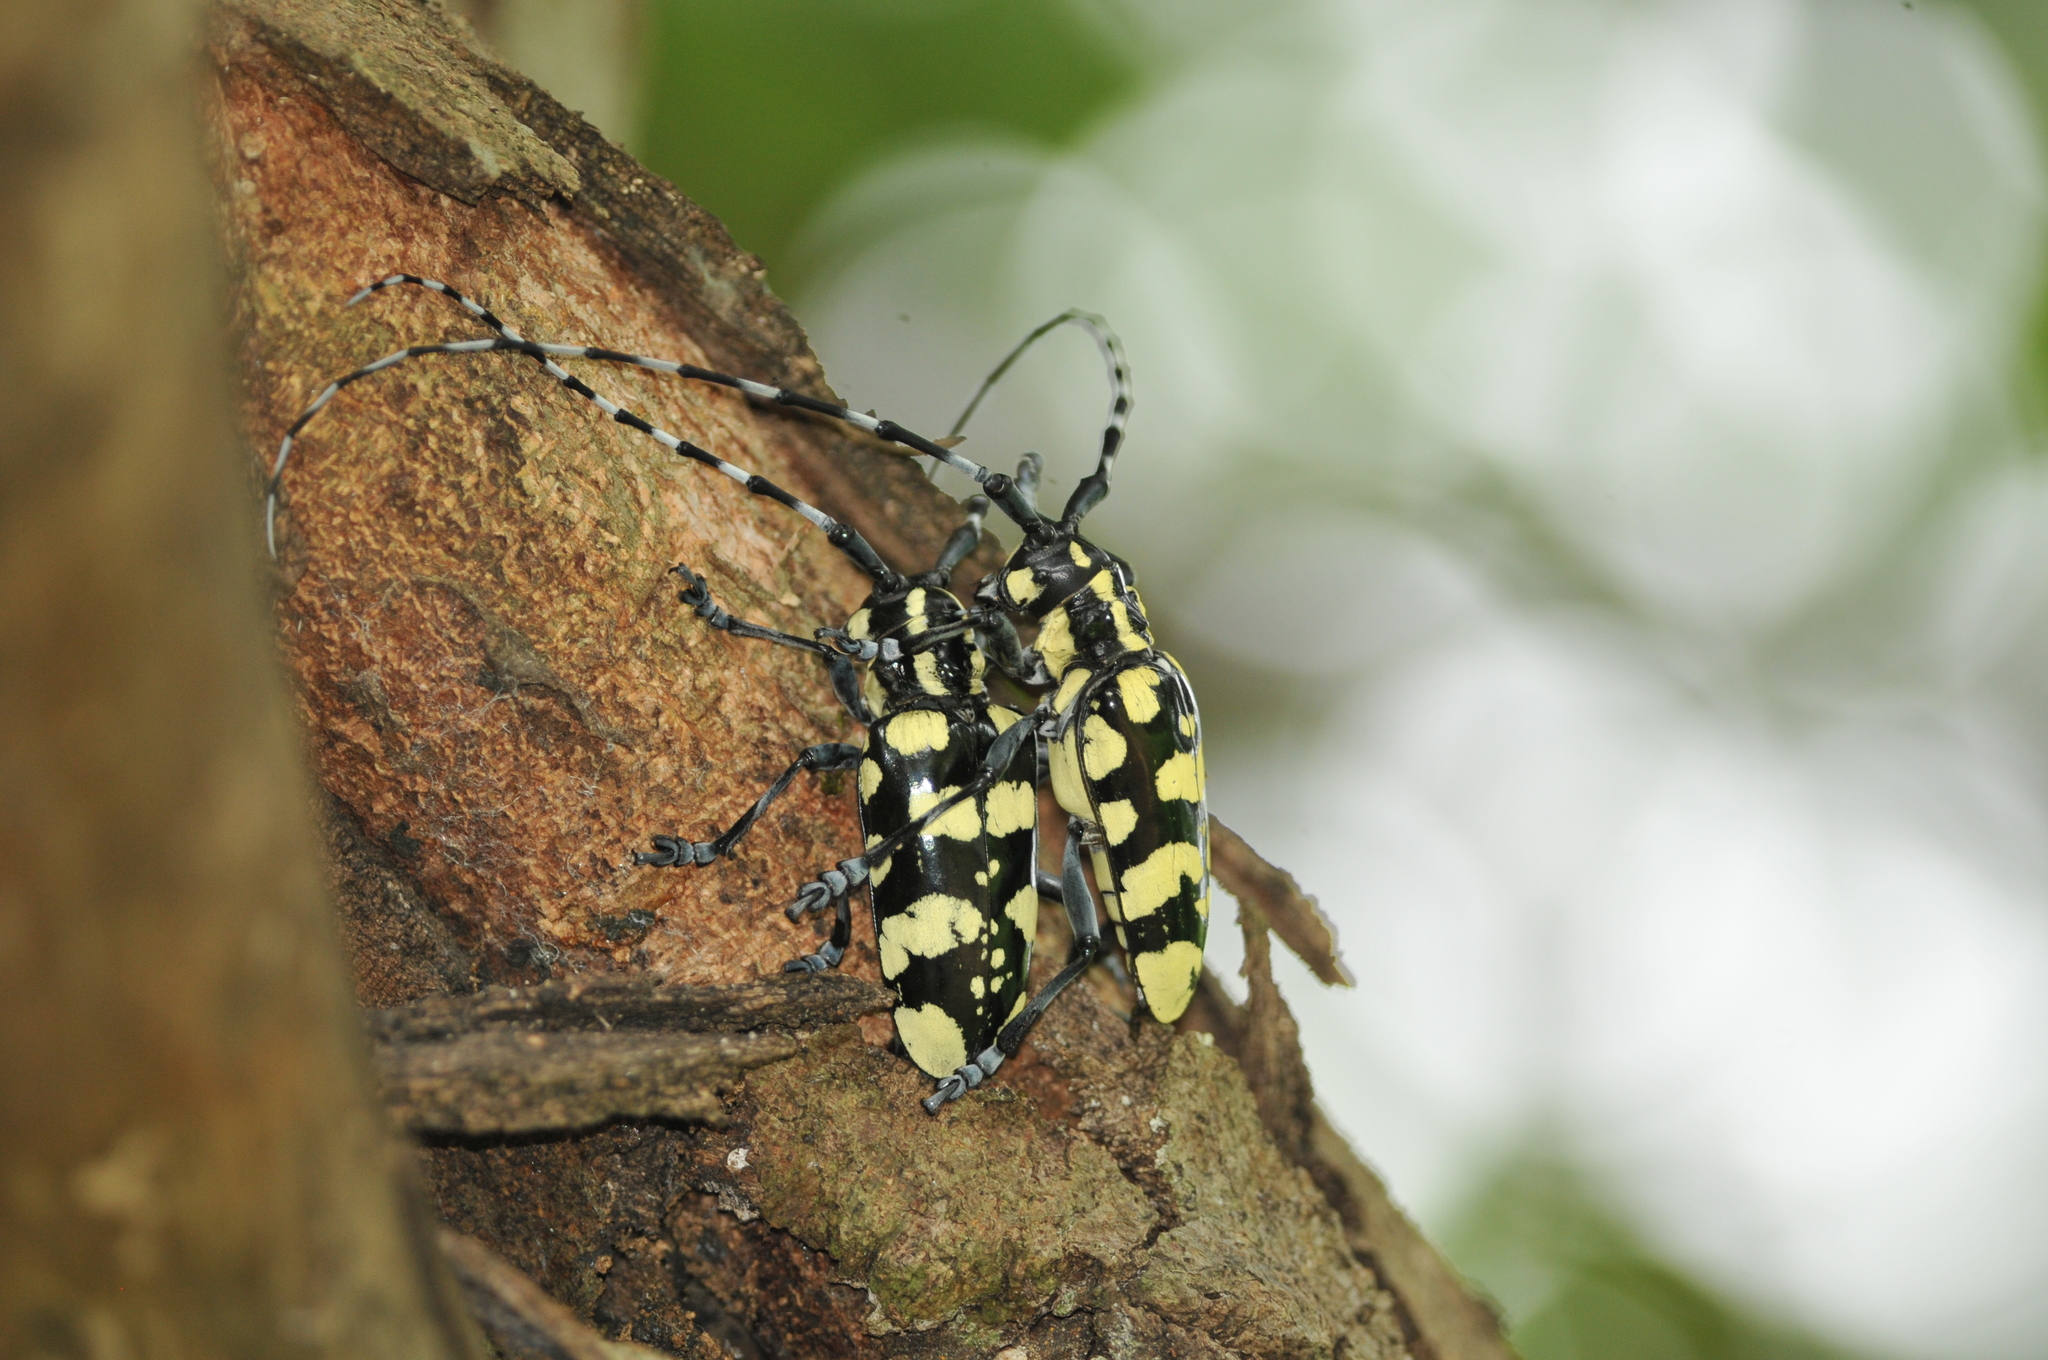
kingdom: Animalia
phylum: Arthropoda
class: Insecta
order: Coleoptera
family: Cerambycidae
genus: Anoplophora
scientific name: Anoplophora horsfieldii
